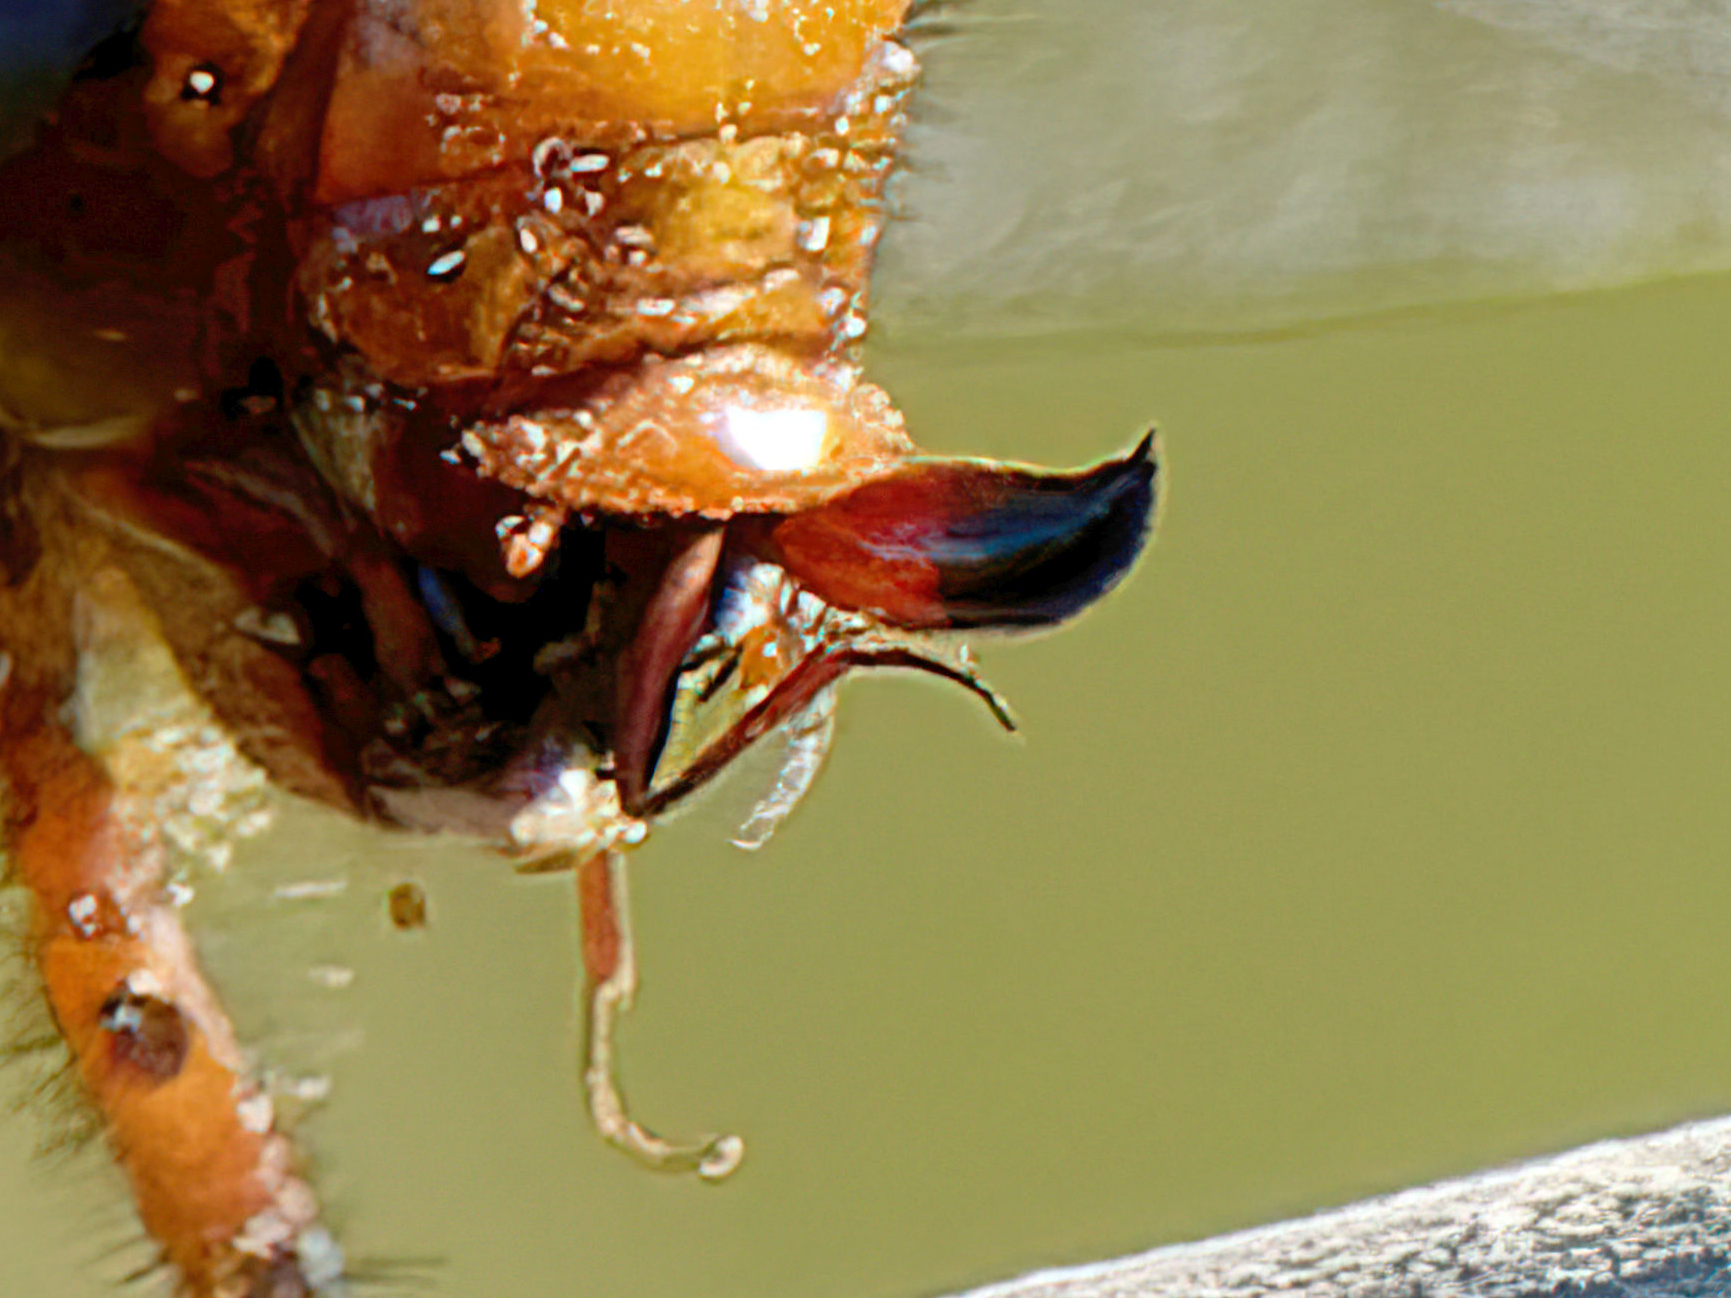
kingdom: Animalia
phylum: Arthropoda
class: Insecta
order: Odonata
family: Libellulidae
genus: Libellula
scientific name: Libellula depressa
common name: Broad-bodied chaser
